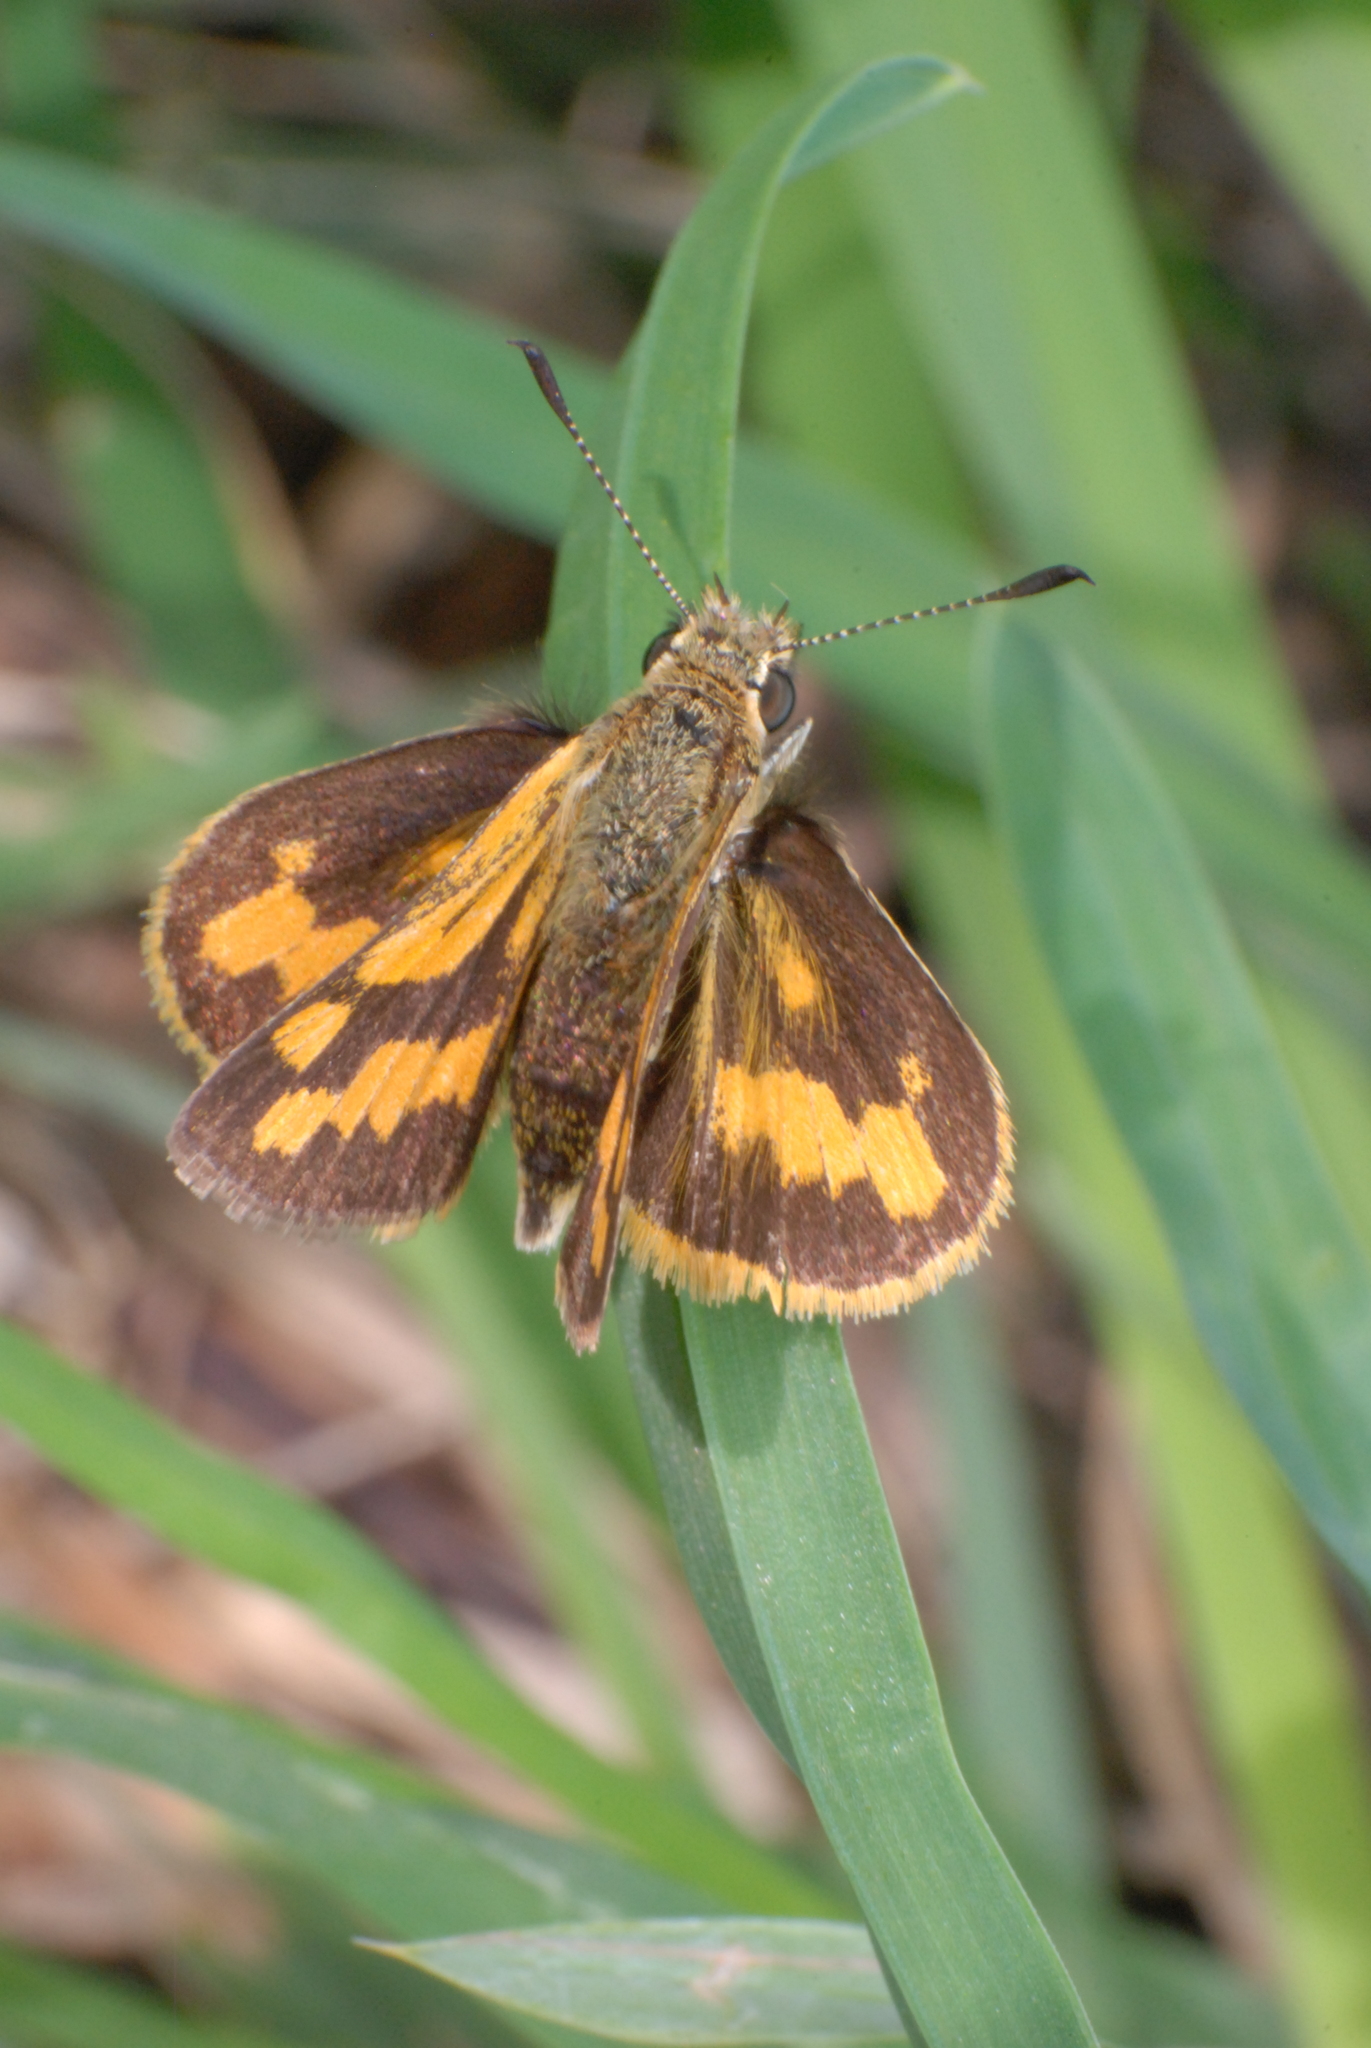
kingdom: Animalia
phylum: Arthropoda
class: Insecta
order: Lepidoptera
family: Hesperiidae
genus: Ocybadistes
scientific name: Ocybadistes walkeri
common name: Yellow-banded dart
